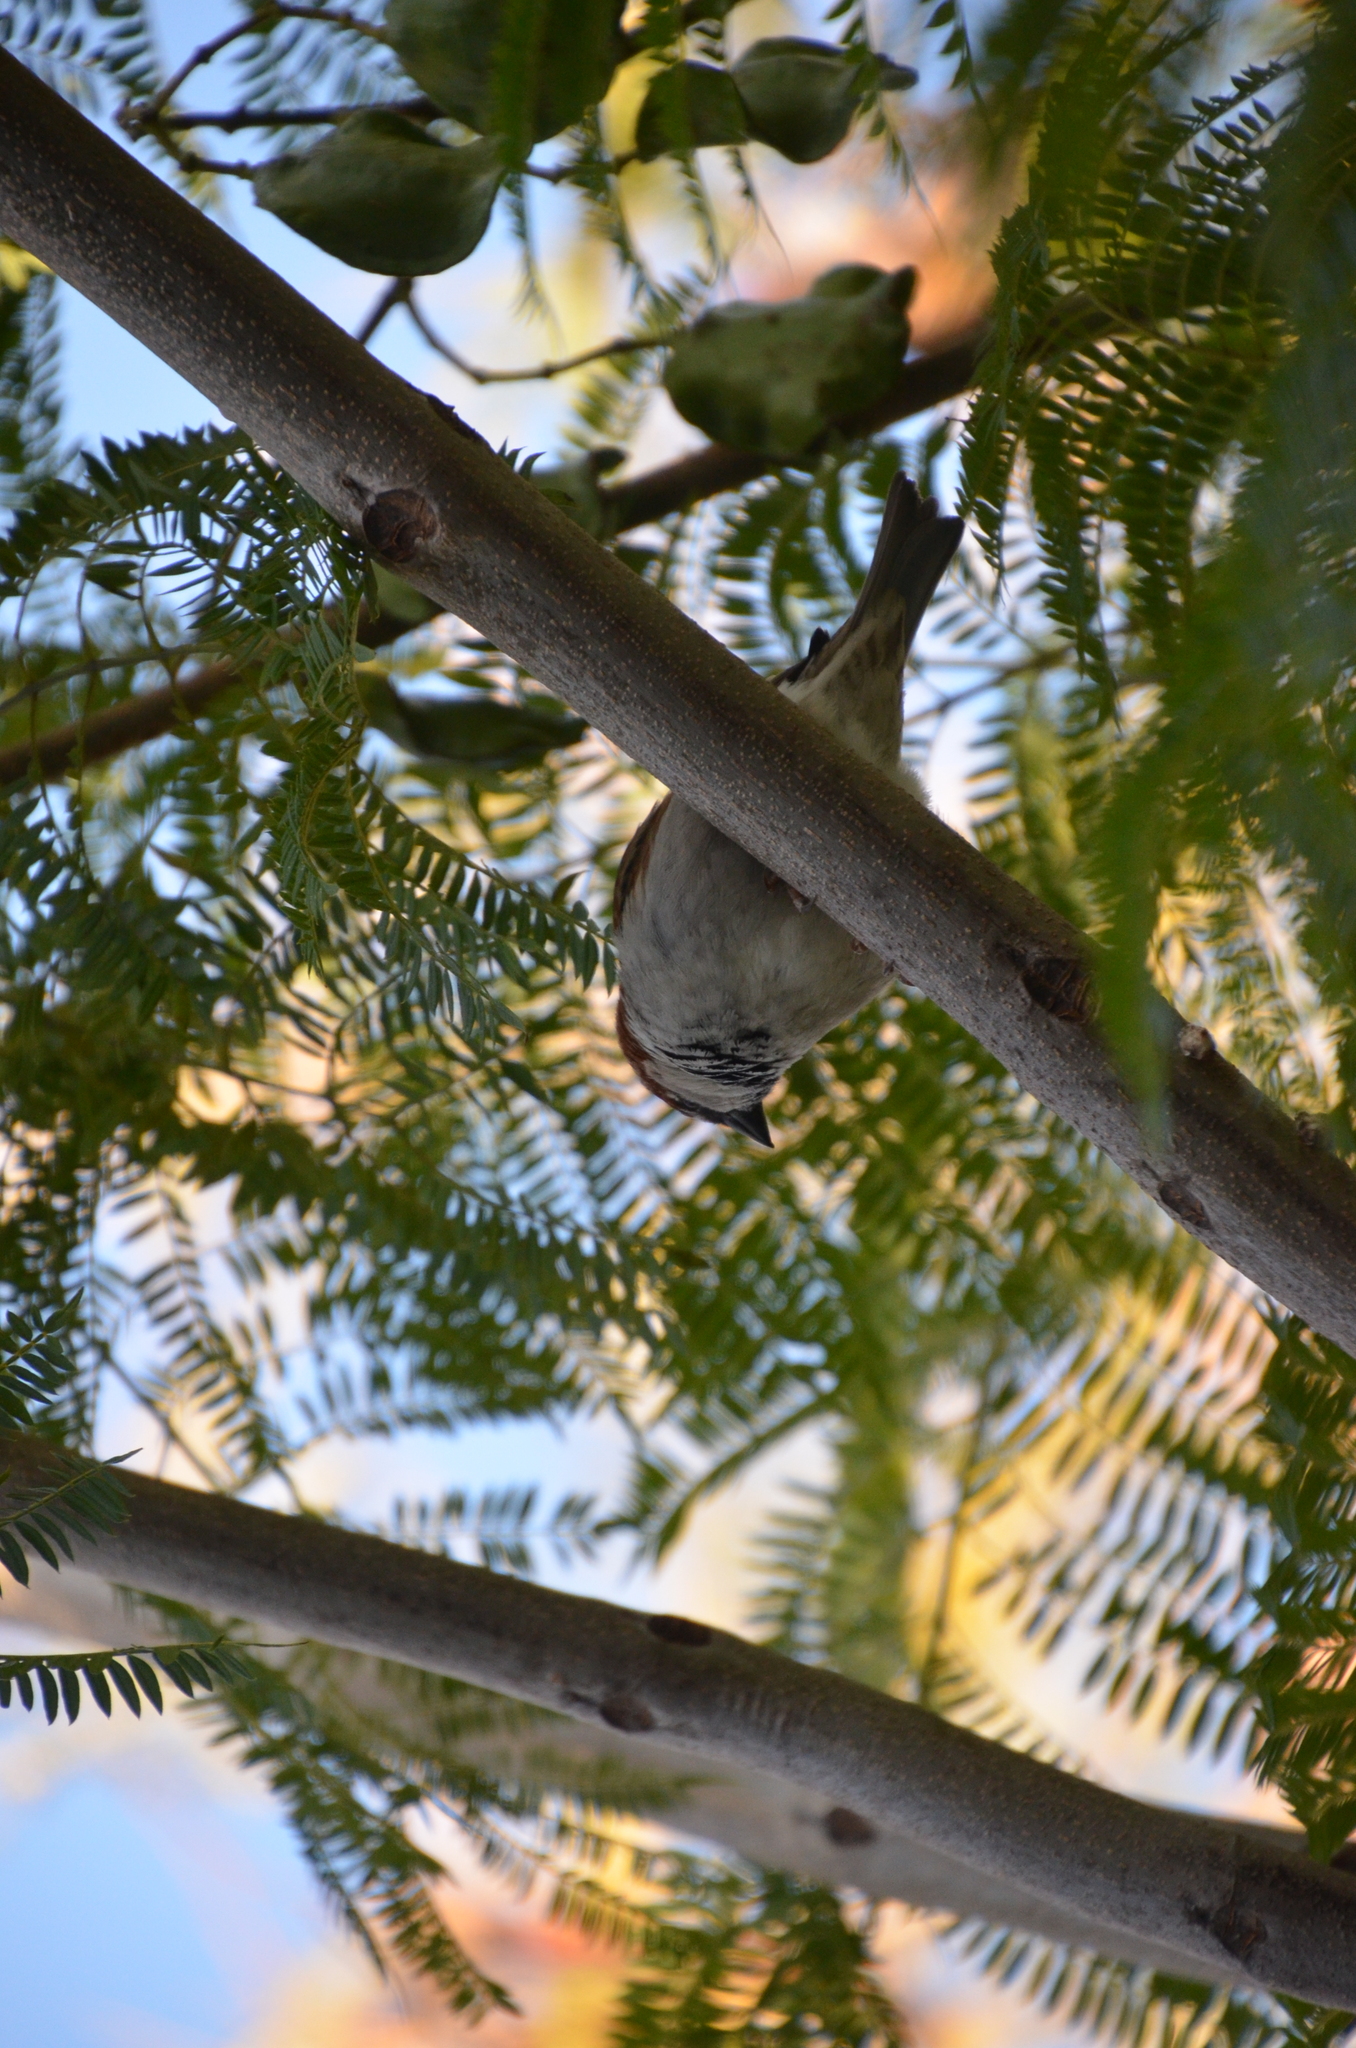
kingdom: Animalia
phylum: Chordata
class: Aves
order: Passeriformes
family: Passeridae
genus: Passer
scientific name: Passer domesticus
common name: House sparrow
